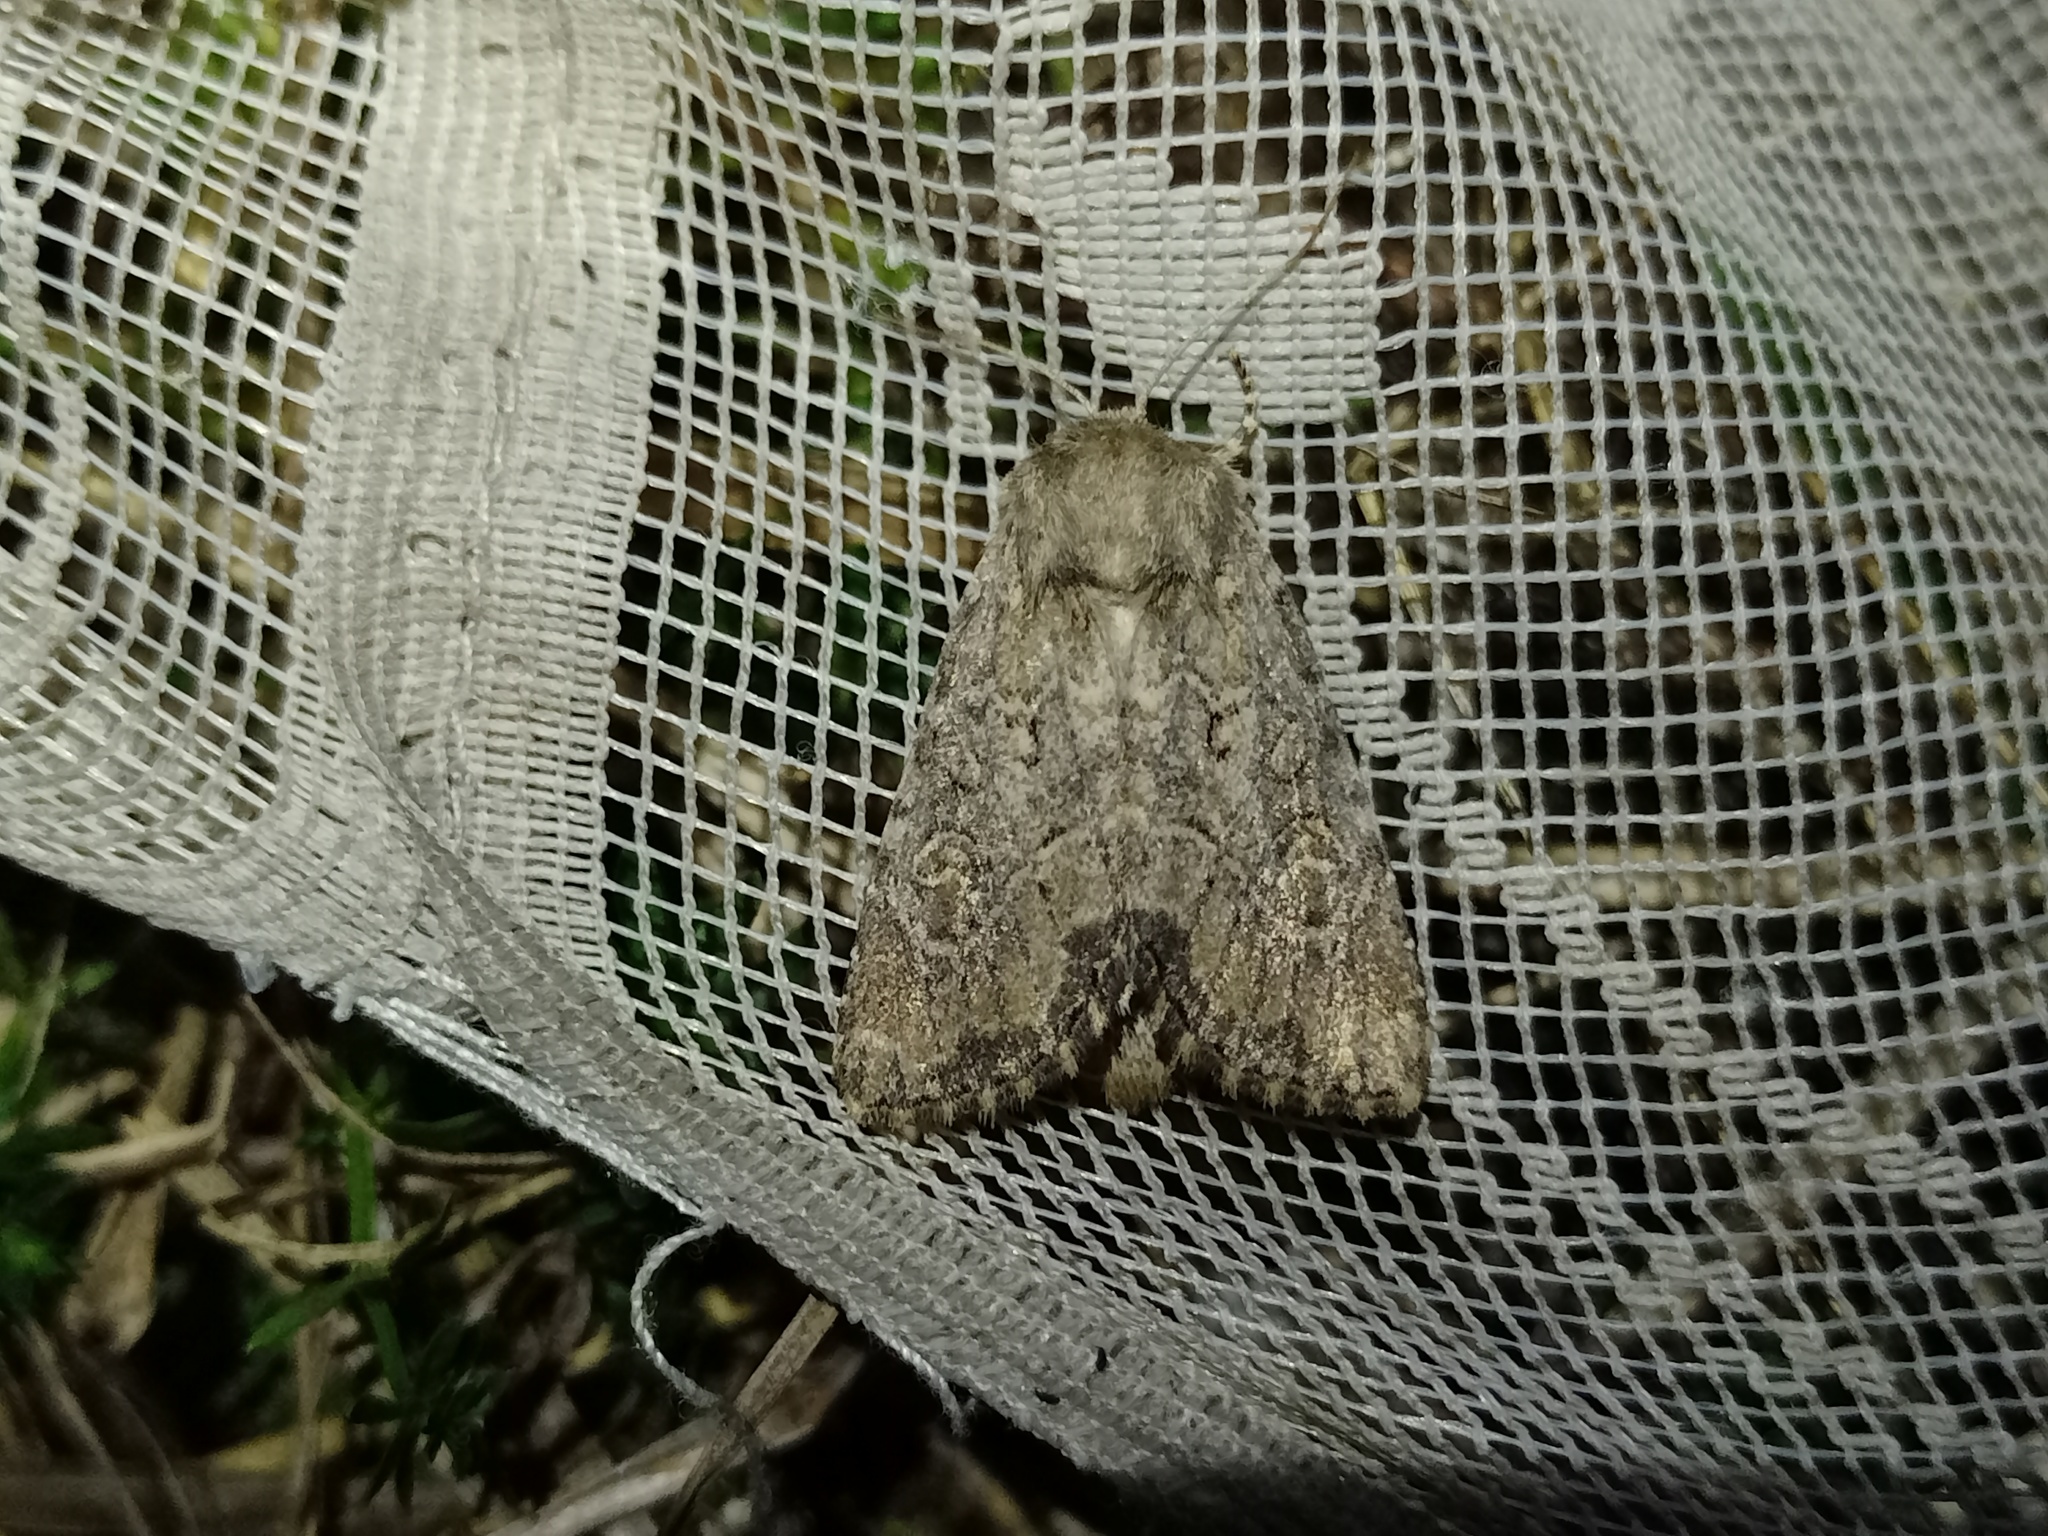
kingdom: Animalia
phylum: Arthropoda
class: Insecta
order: Lepidoptera
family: Noctuidae
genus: Luperina
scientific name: Luperina testacea
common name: Flounced rustic
